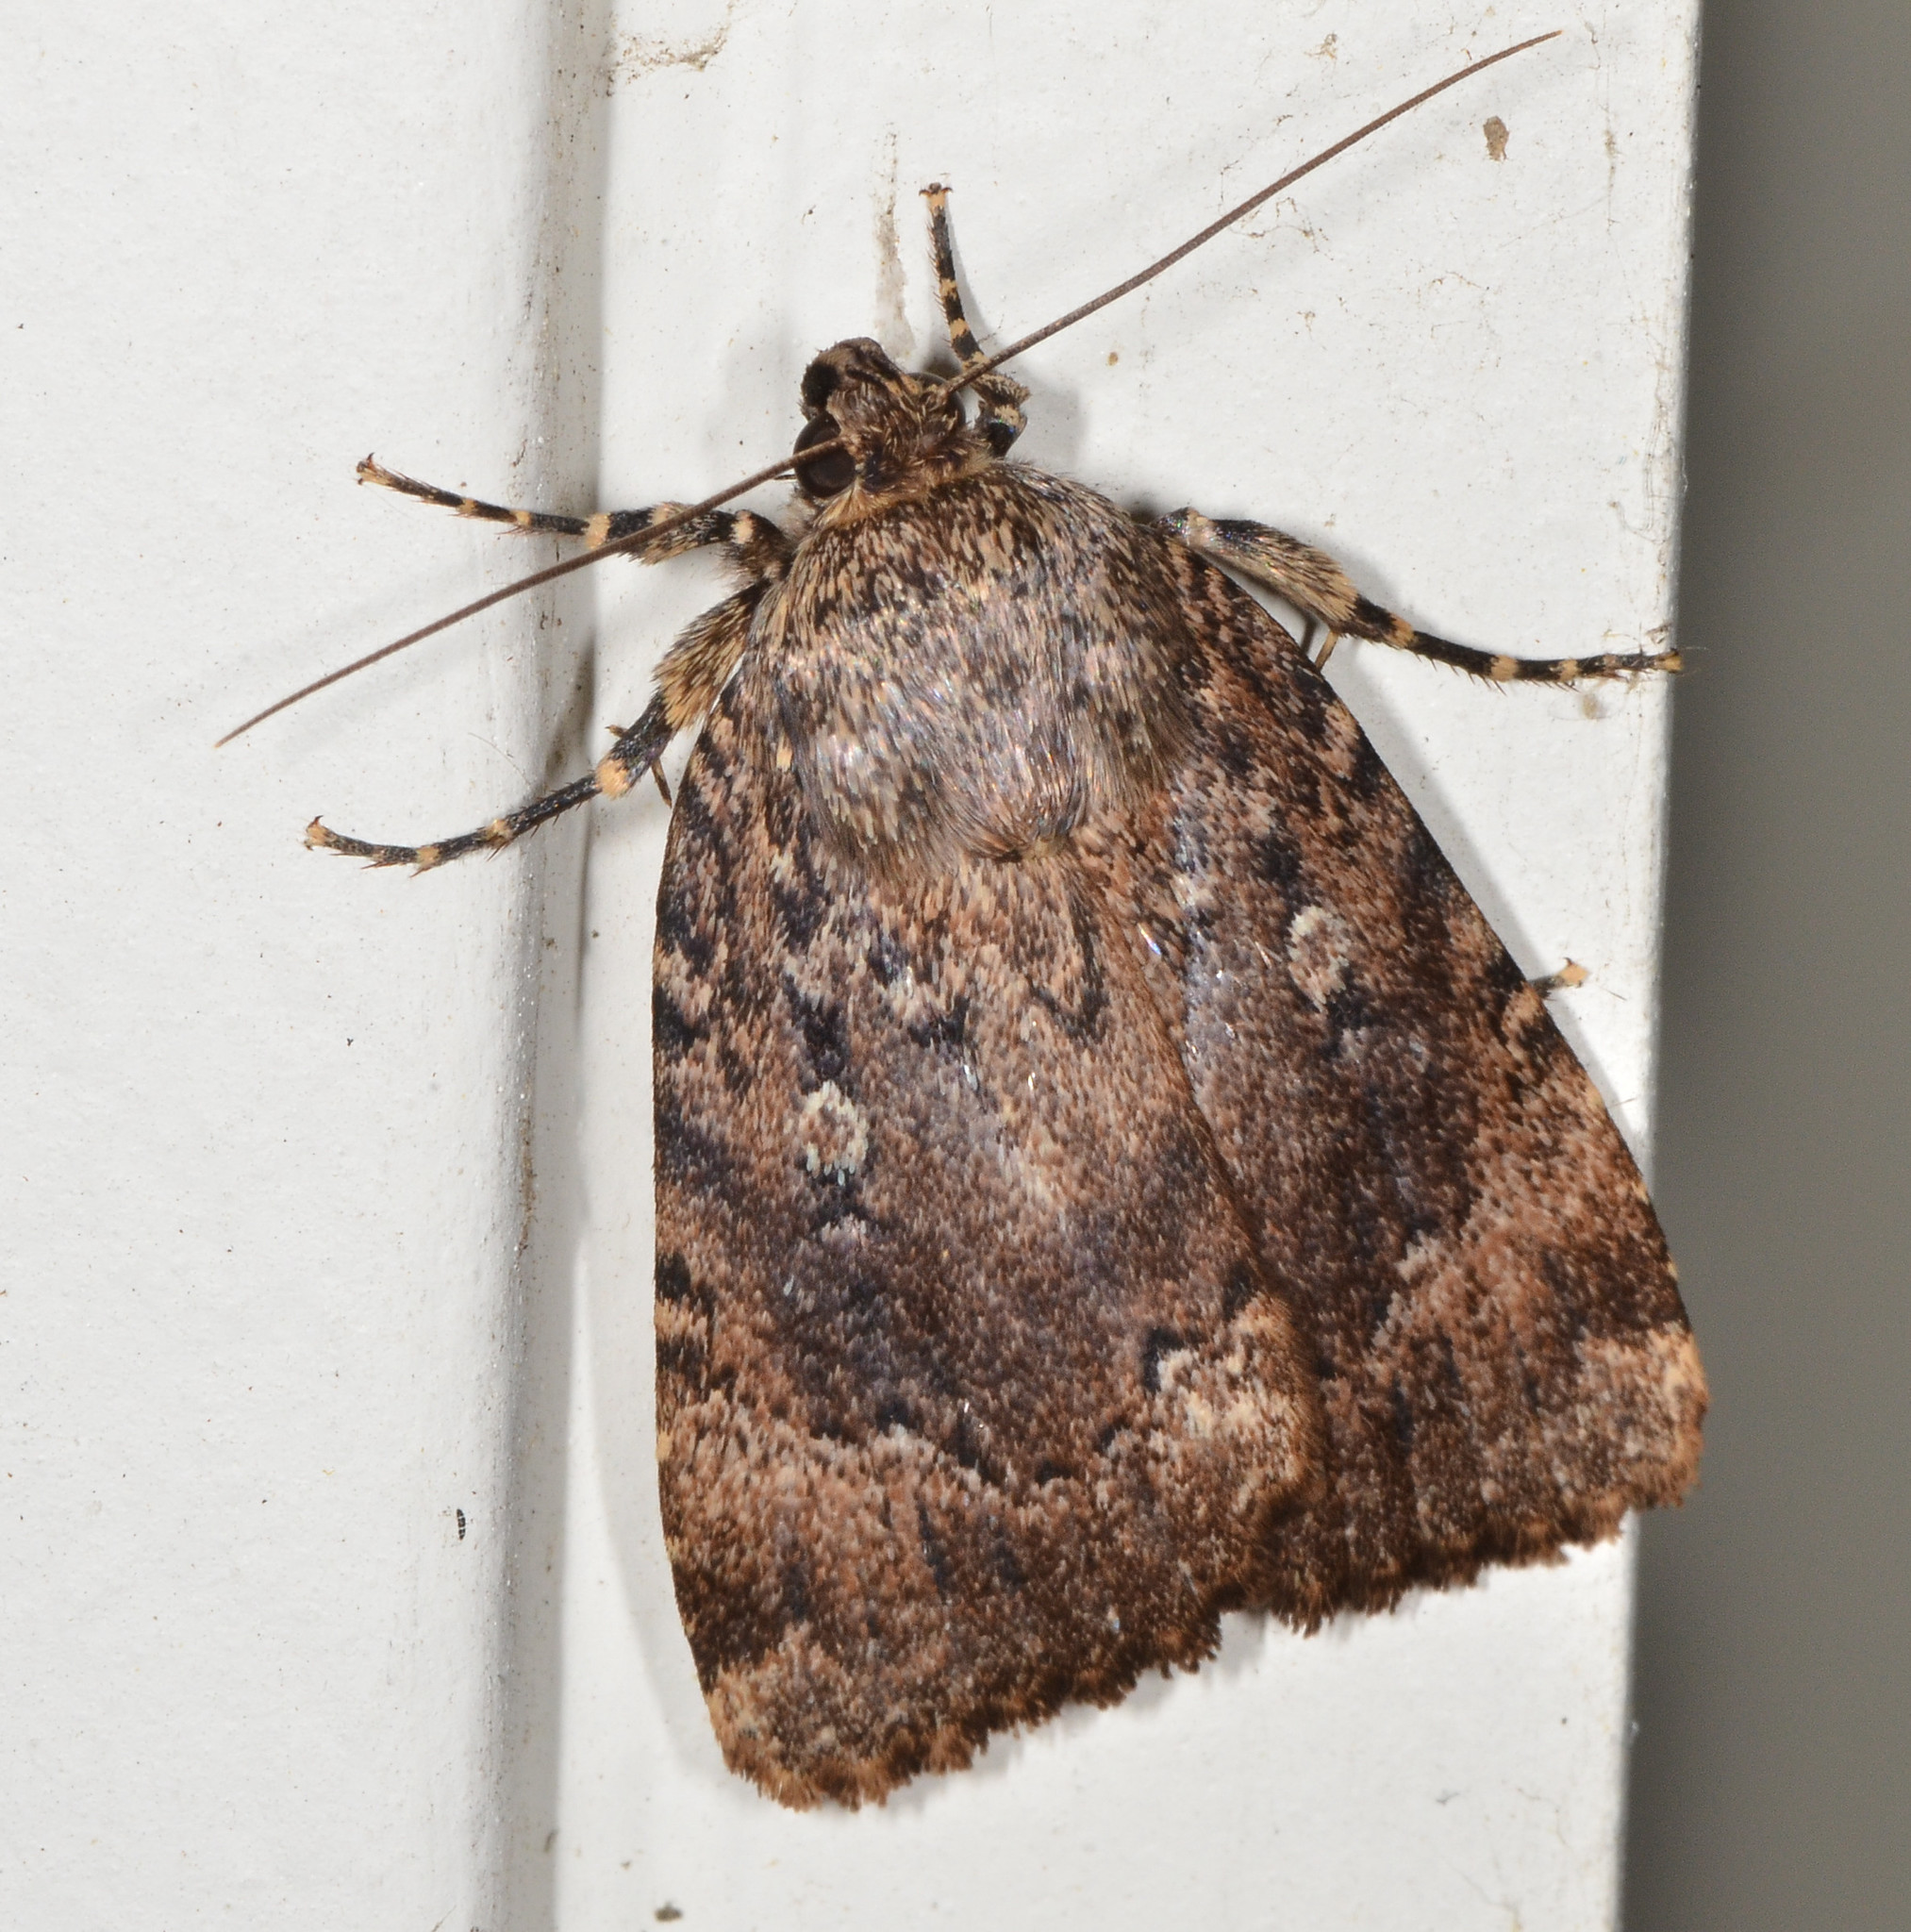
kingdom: Animalia
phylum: Arthropoda
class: Insecta
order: Lepidoptera
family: Noctuidae
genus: Amphipyra
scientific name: Amphipyra pyramidoides
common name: American copper underwing
